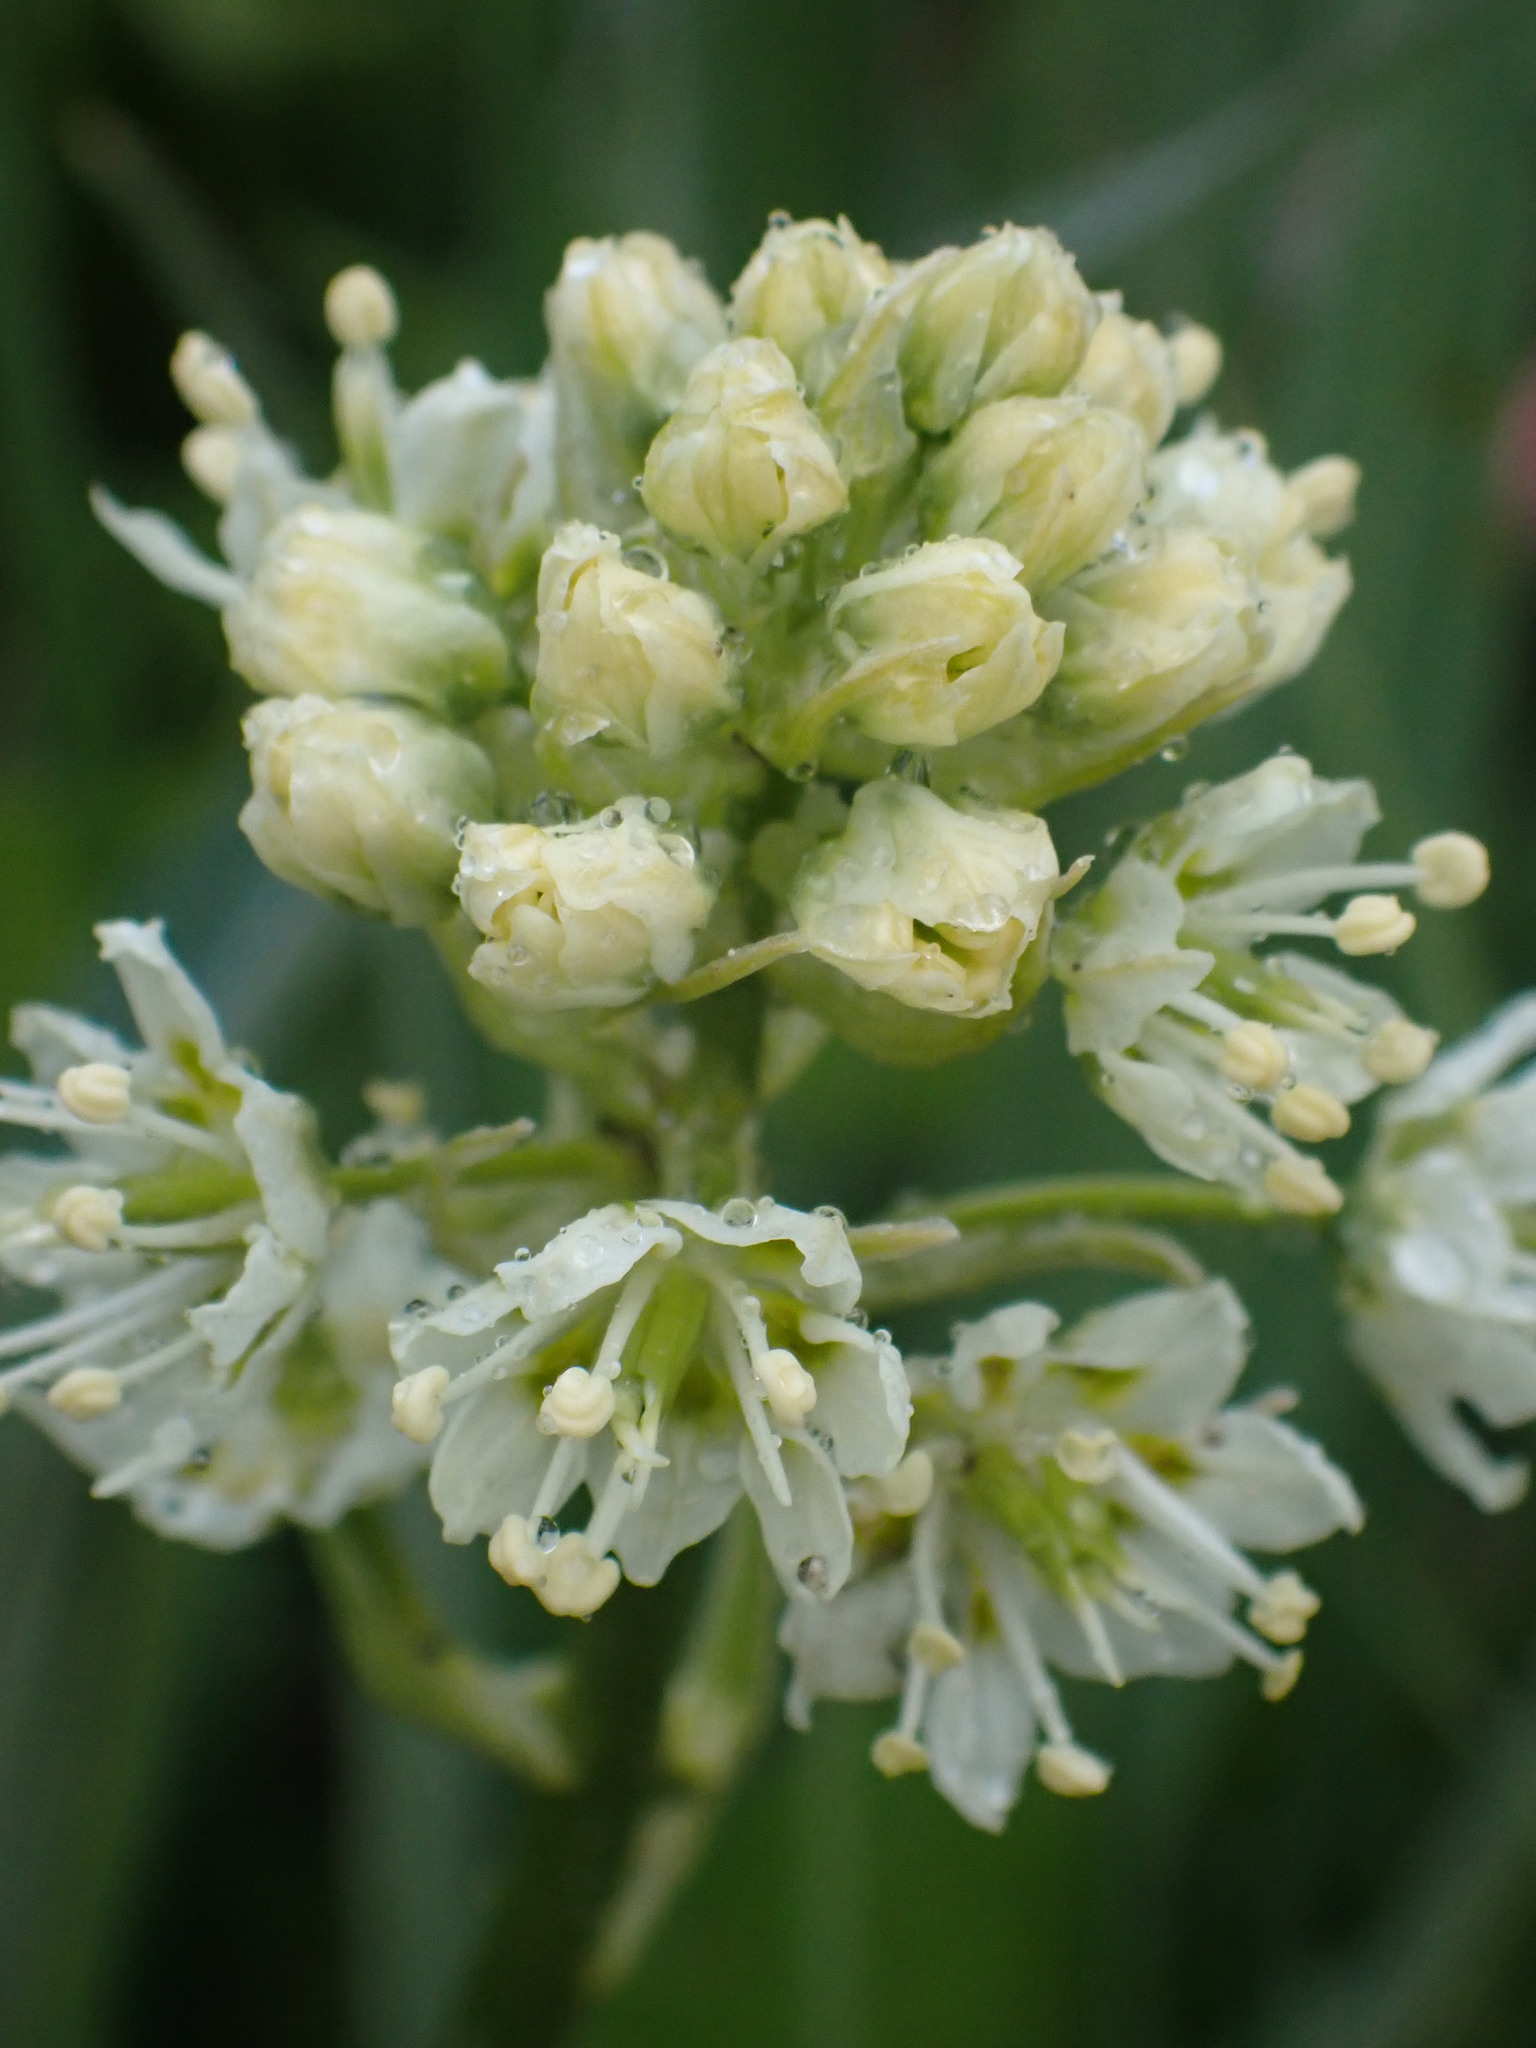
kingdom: Plantae
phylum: Tracheophyta
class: Liliopsida
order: Liliales
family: Melanthiaceae
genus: Toxicoscordion
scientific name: Toxicoscordion venenosum
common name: Meadow death camas
